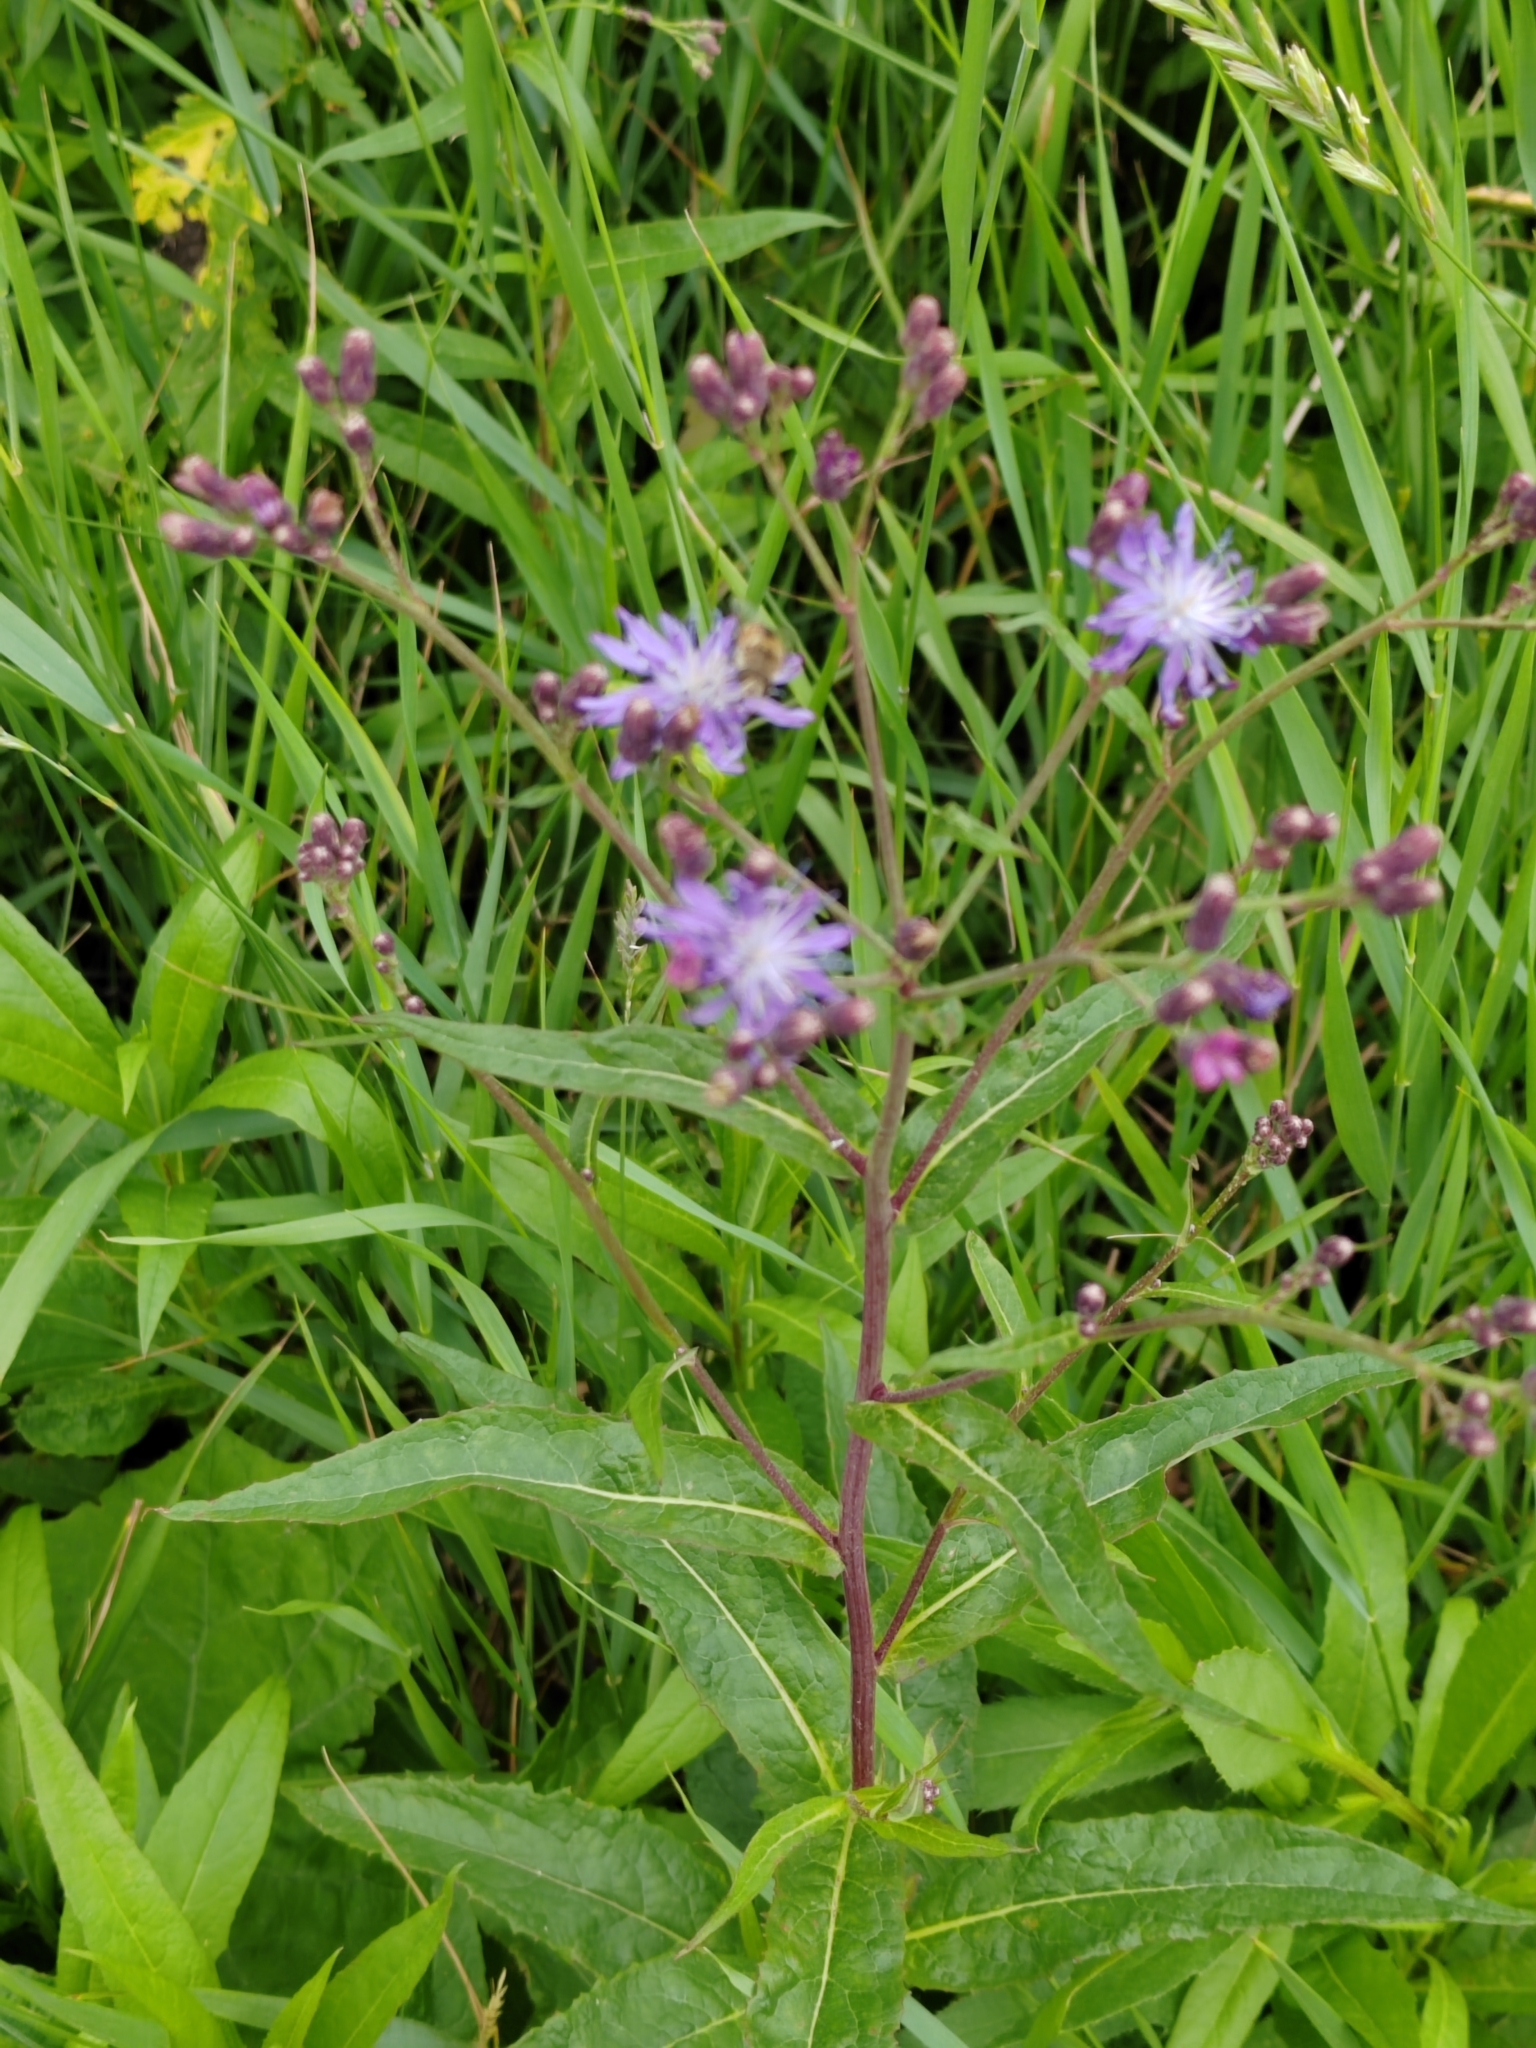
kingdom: Plantae
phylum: Tracheophyta
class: Magnoliopsida
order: Asterales
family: Asteraceae
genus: Lactuca
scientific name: Lactuca sibirica
